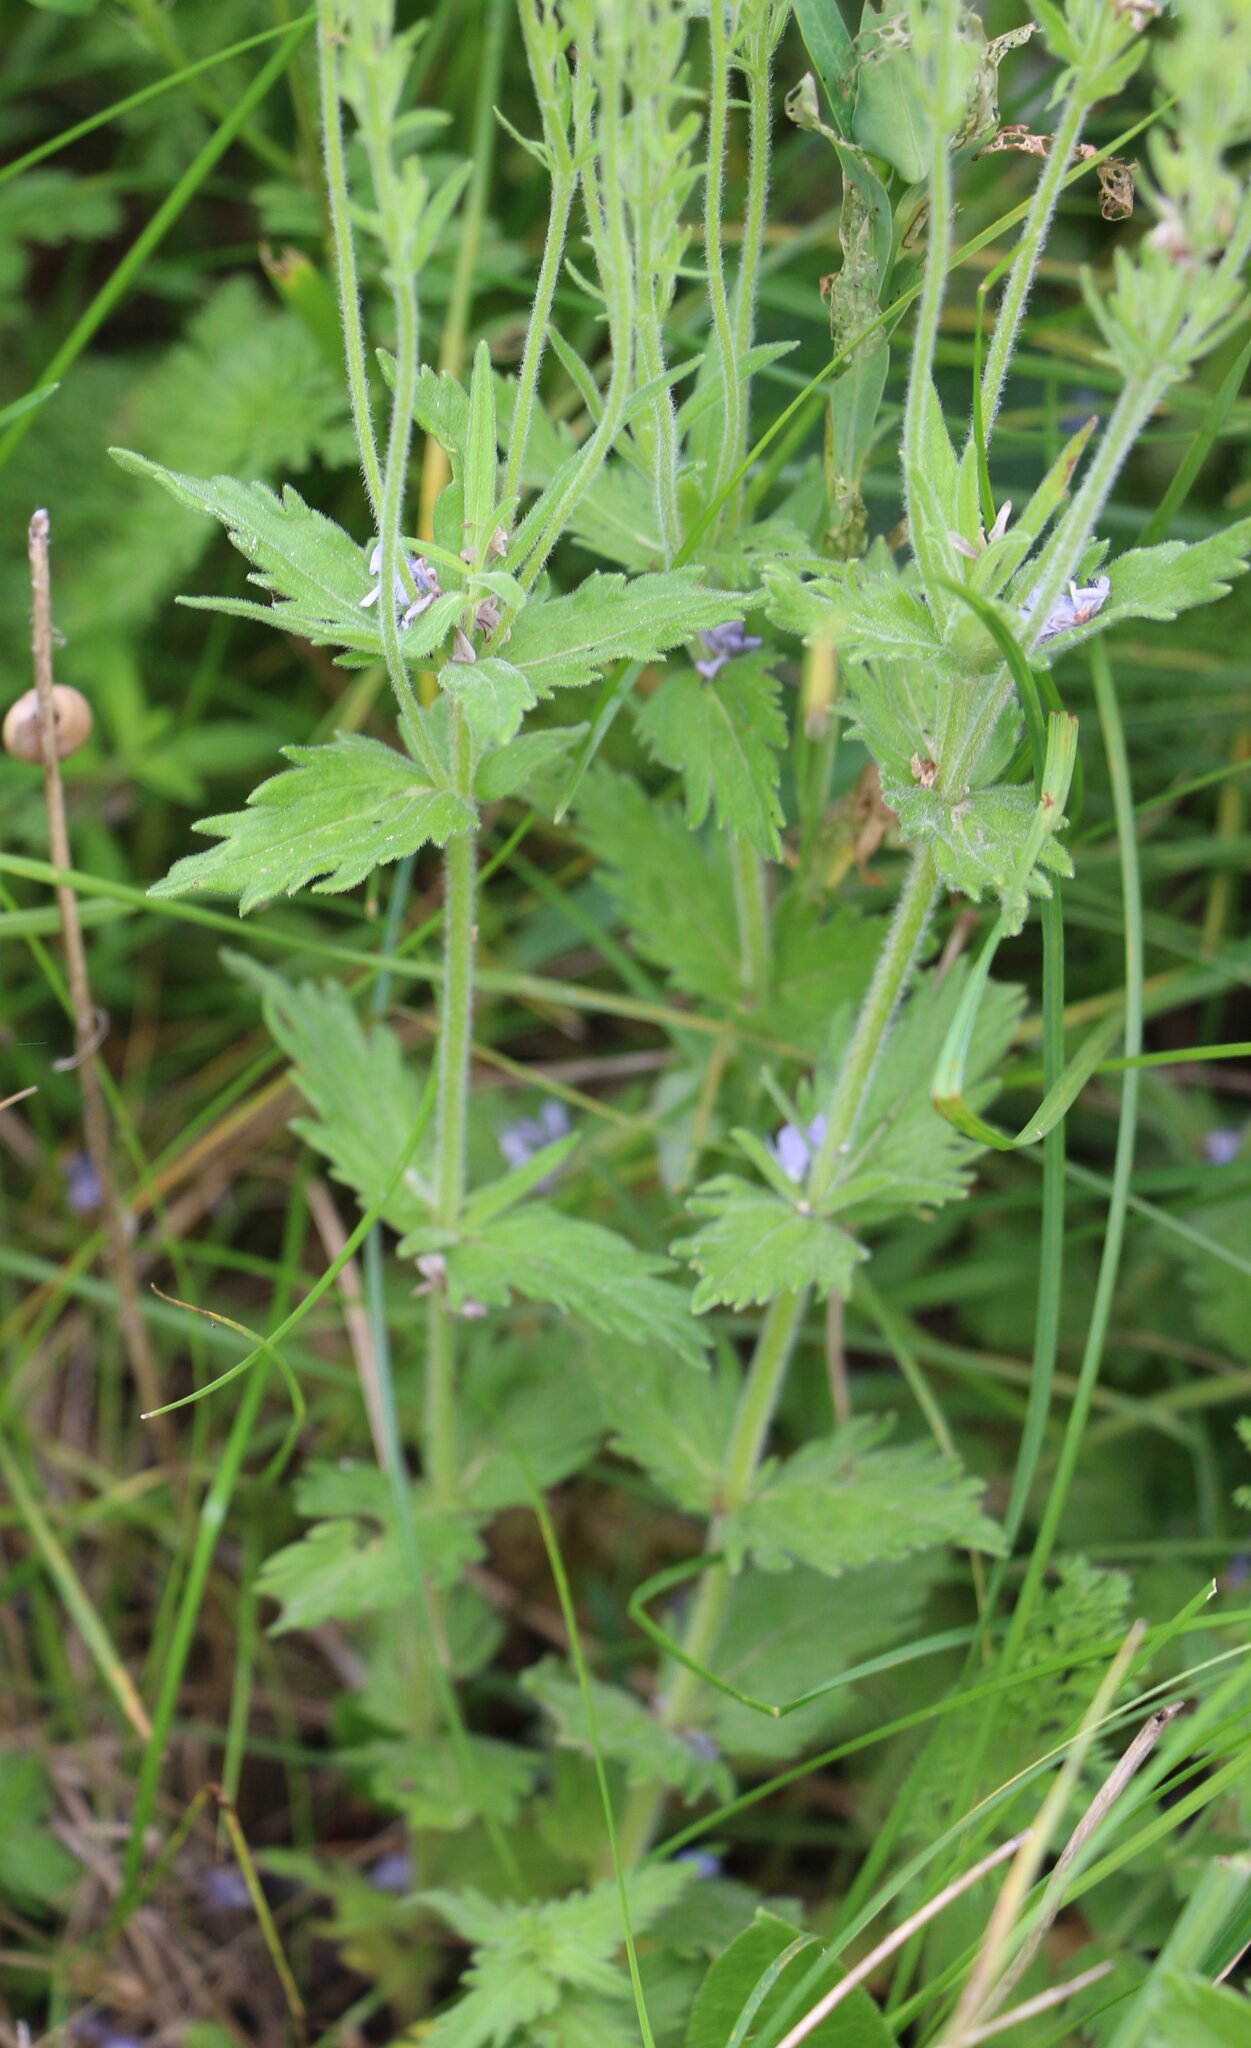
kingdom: Plantae
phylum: Tracheophyta
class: Magnoliopsida
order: Lamiales
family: Plantaginaceae
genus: Veronica
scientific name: Veronica austriaca
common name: Large speedwell
